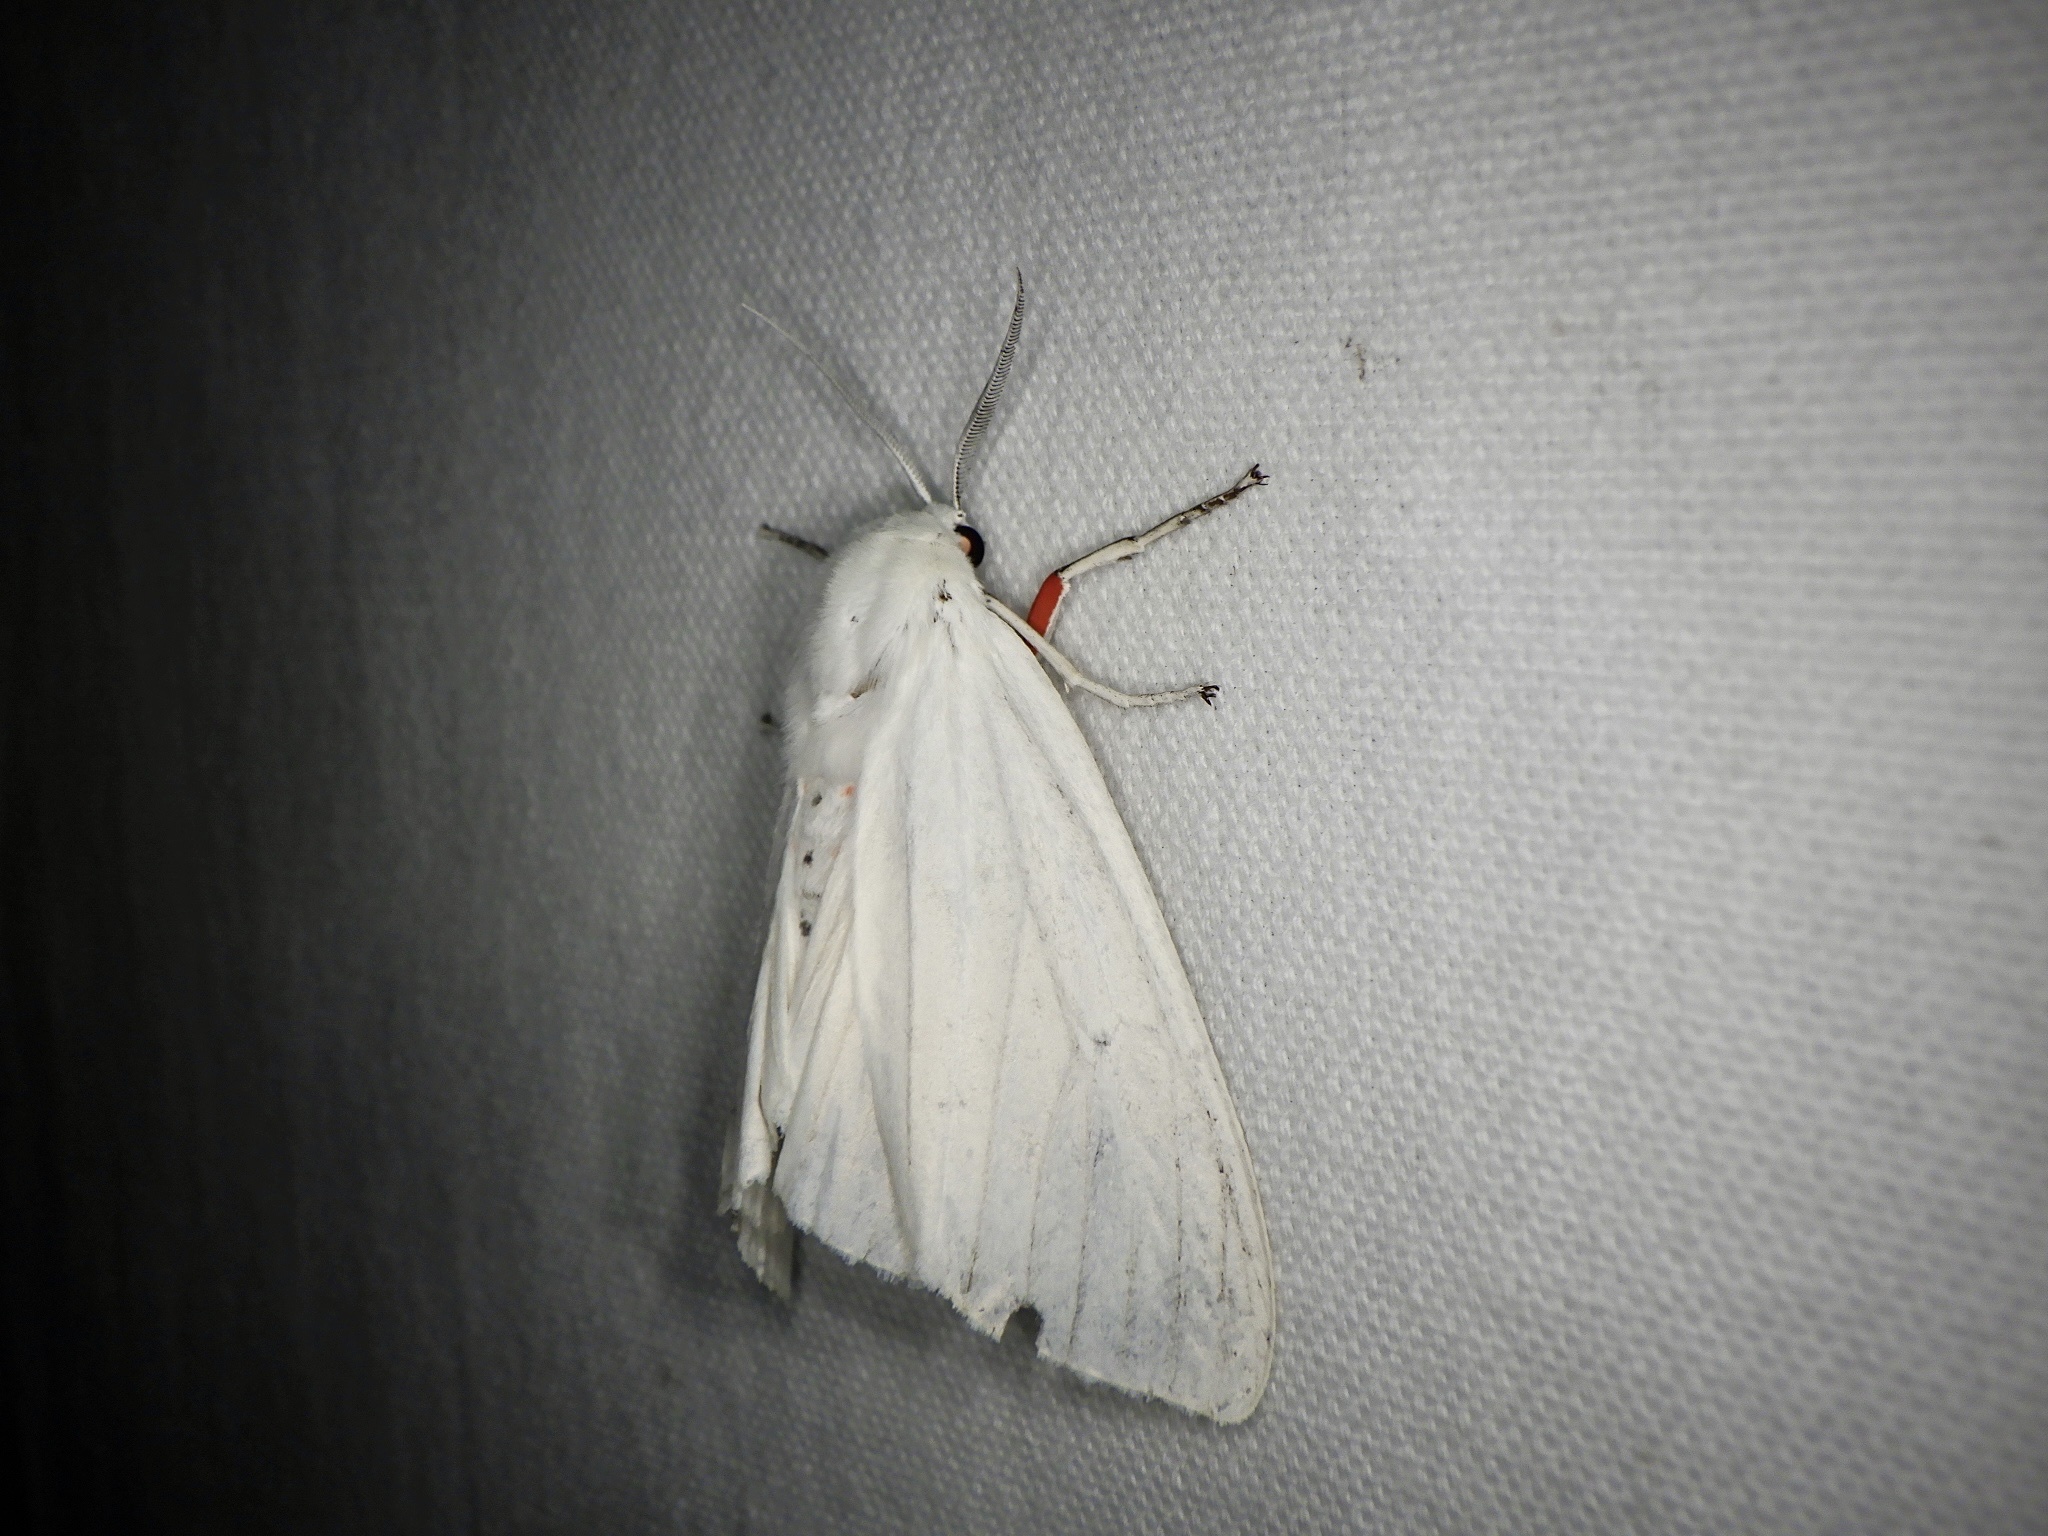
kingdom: Animalia
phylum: Arthropoda
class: Insecta
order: Lepidoptera
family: Erebidae
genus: Chionarctia
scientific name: Chionarctia nivea
